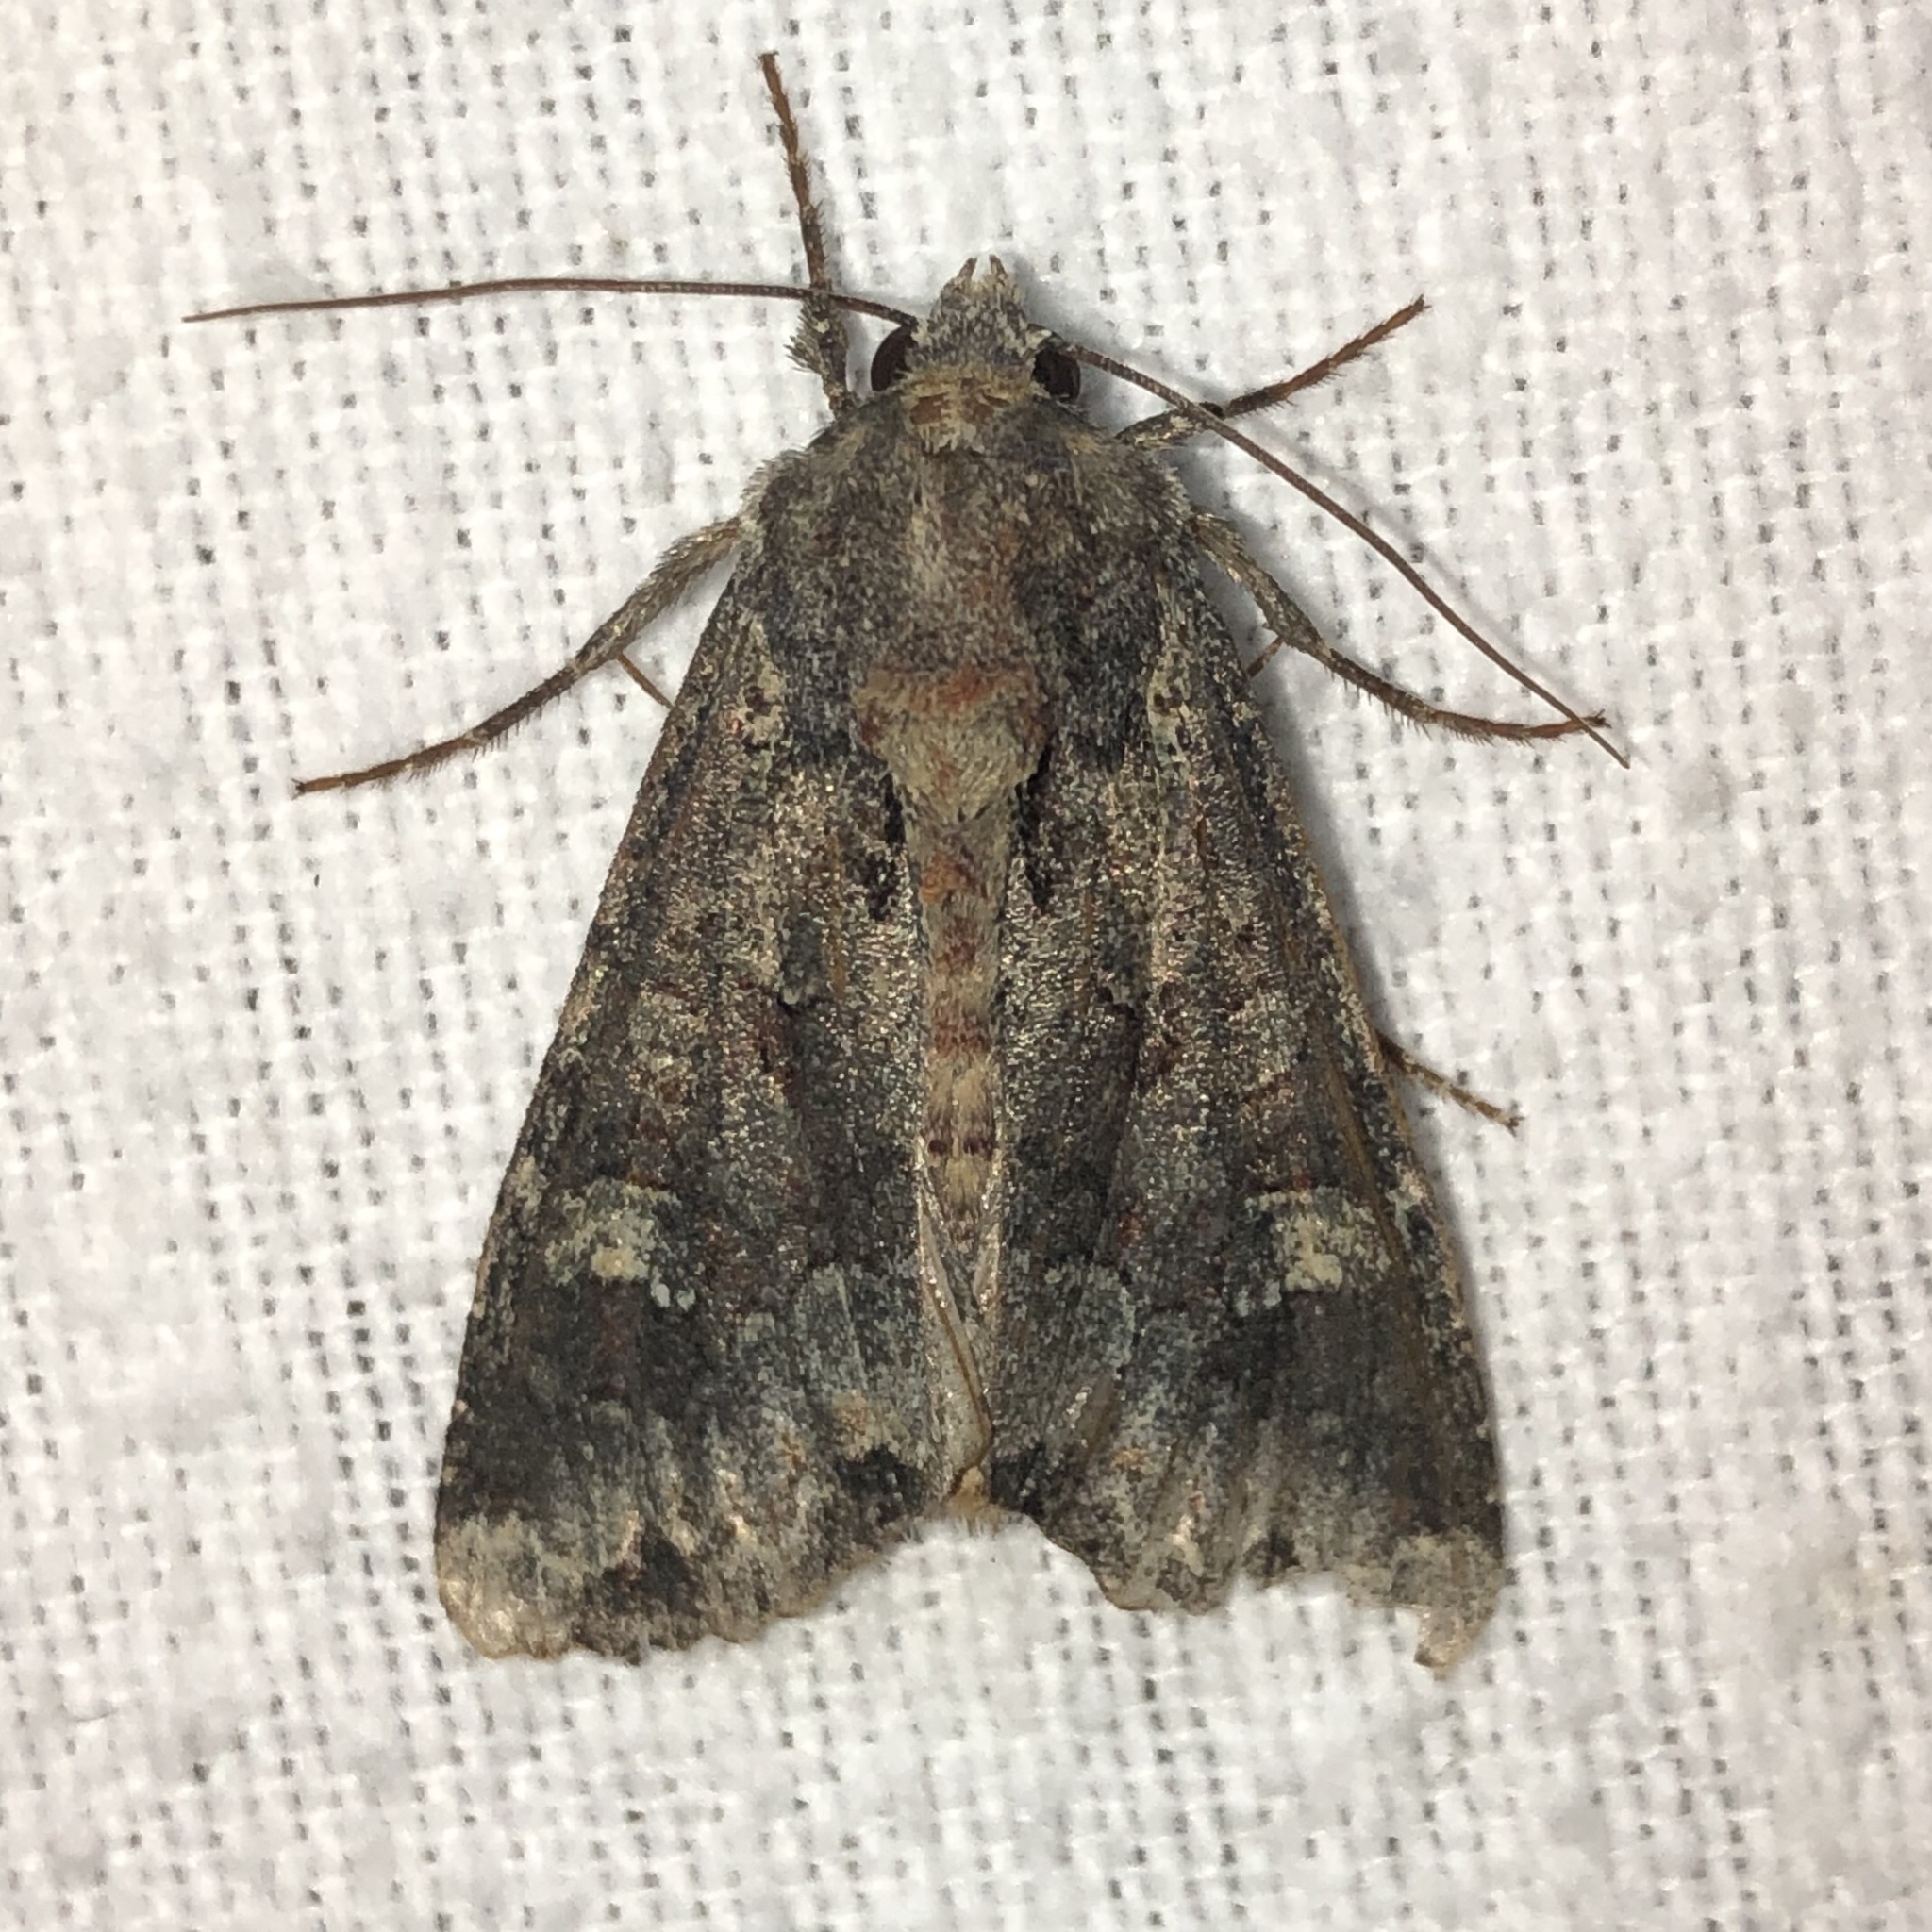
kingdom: Animalia
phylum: Arthropoda
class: Insecta
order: Lepidoptera
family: Noctuidae
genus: Apamea
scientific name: Apamea amputatrix
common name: Yellow-headed cutworm moth
